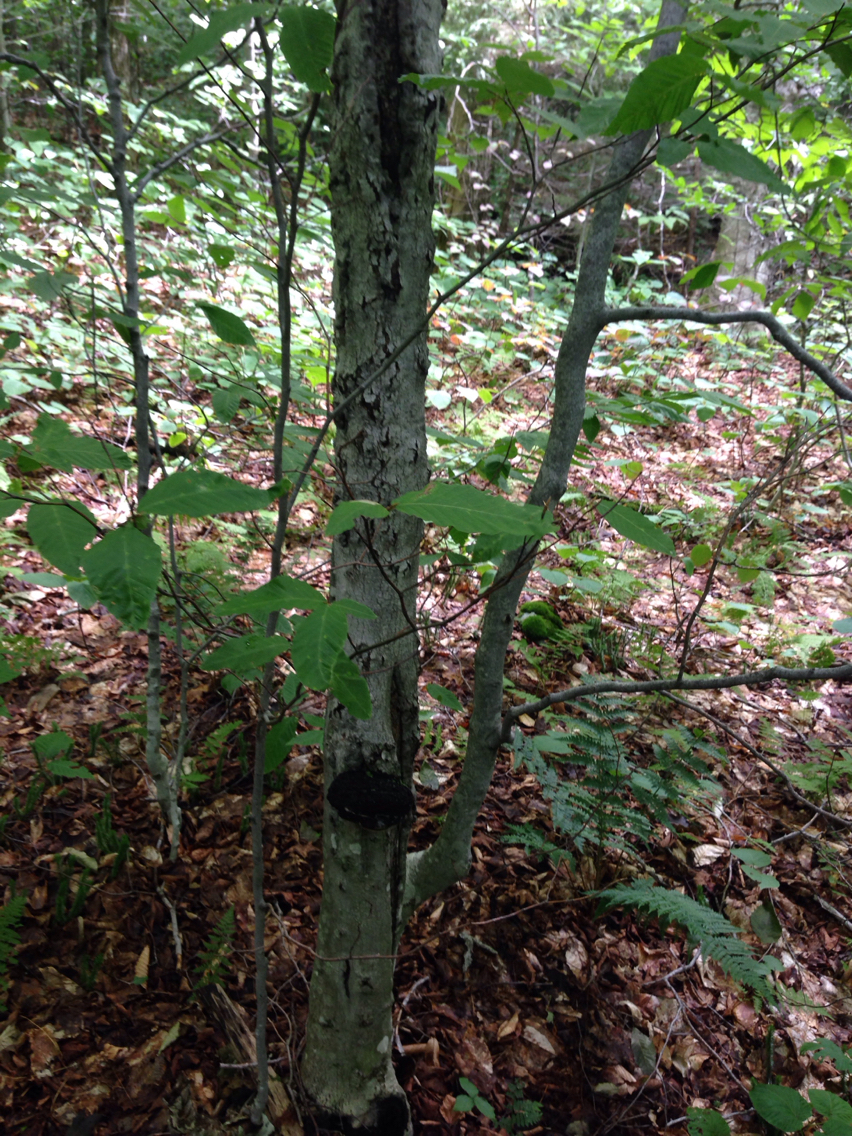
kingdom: Plantae
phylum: Tracheophyta
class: Magnoliopsida
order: Fagales
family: Fagaceae
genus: Fagus
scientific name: Fagus grandifolia
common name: American beech
